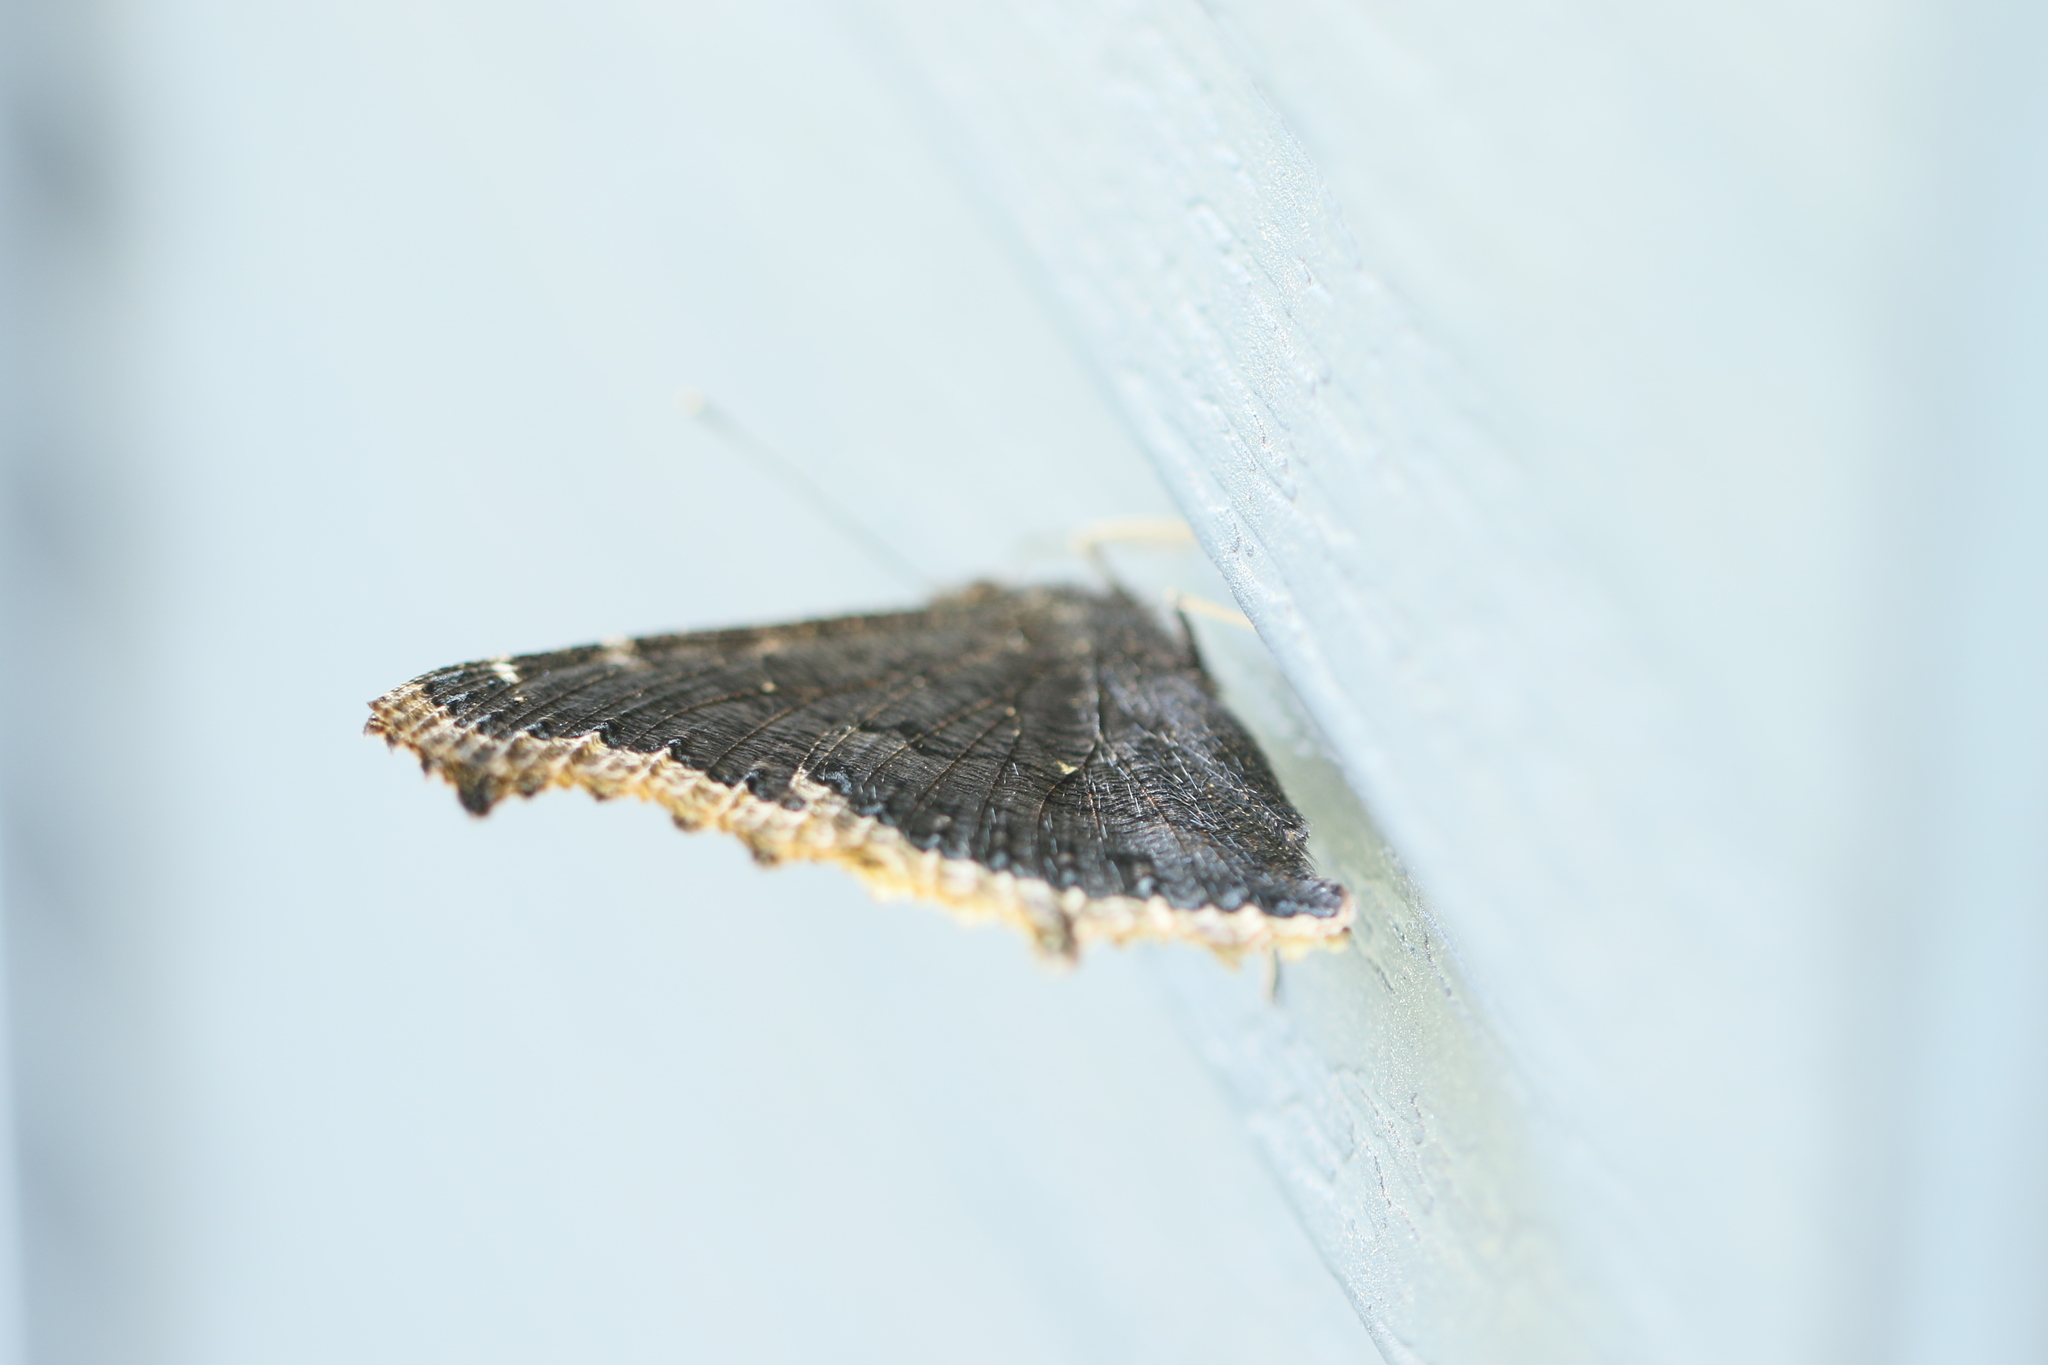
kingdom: Animalia
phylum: Arthropoda
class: Insecta
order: Lepidoptera
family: Nymphalidae
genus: Nymphalis
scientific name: Nymphalis antiopa
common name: Camberwell beauty
